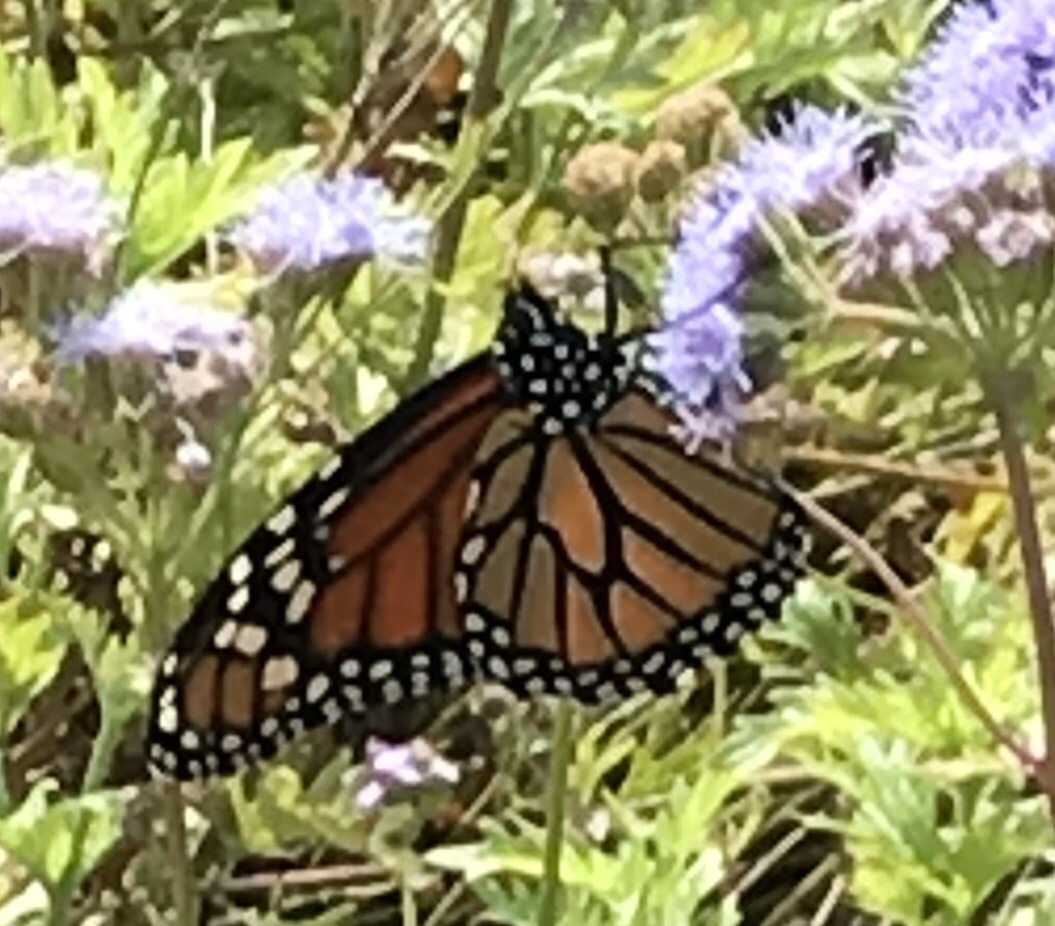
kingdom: Animalia
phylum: Arthropoda
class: Insecta
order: Lepidoptera
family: Nymphalidae
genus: Danaus
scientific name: Danaus plexippus
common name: Monarch
